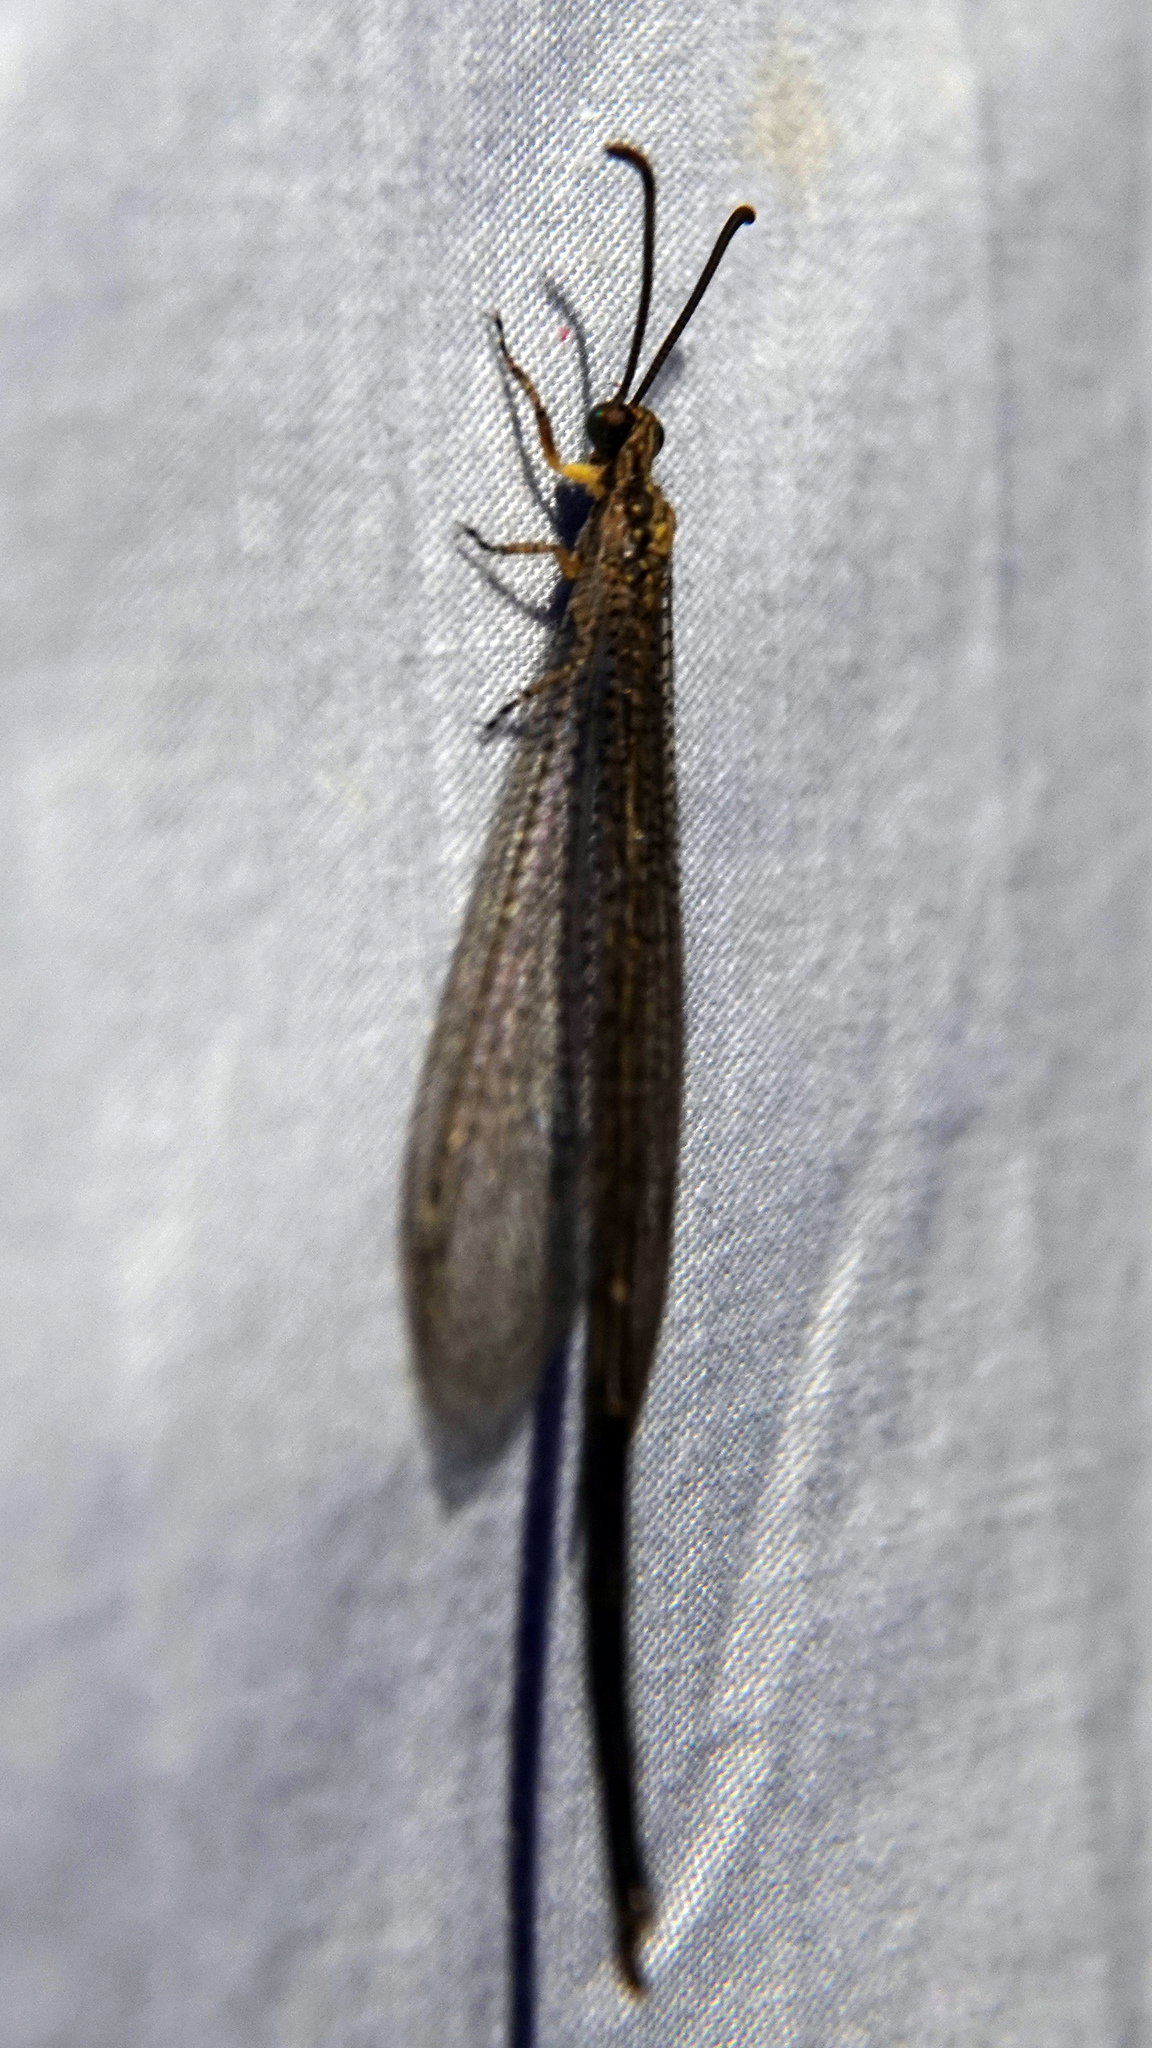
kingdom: Animalia
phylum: Arthropoda
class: Insecta
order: Neuroptera
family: Myrmeleontidae
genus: Brachynemurus
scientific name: Brachynemurus abdominalis
